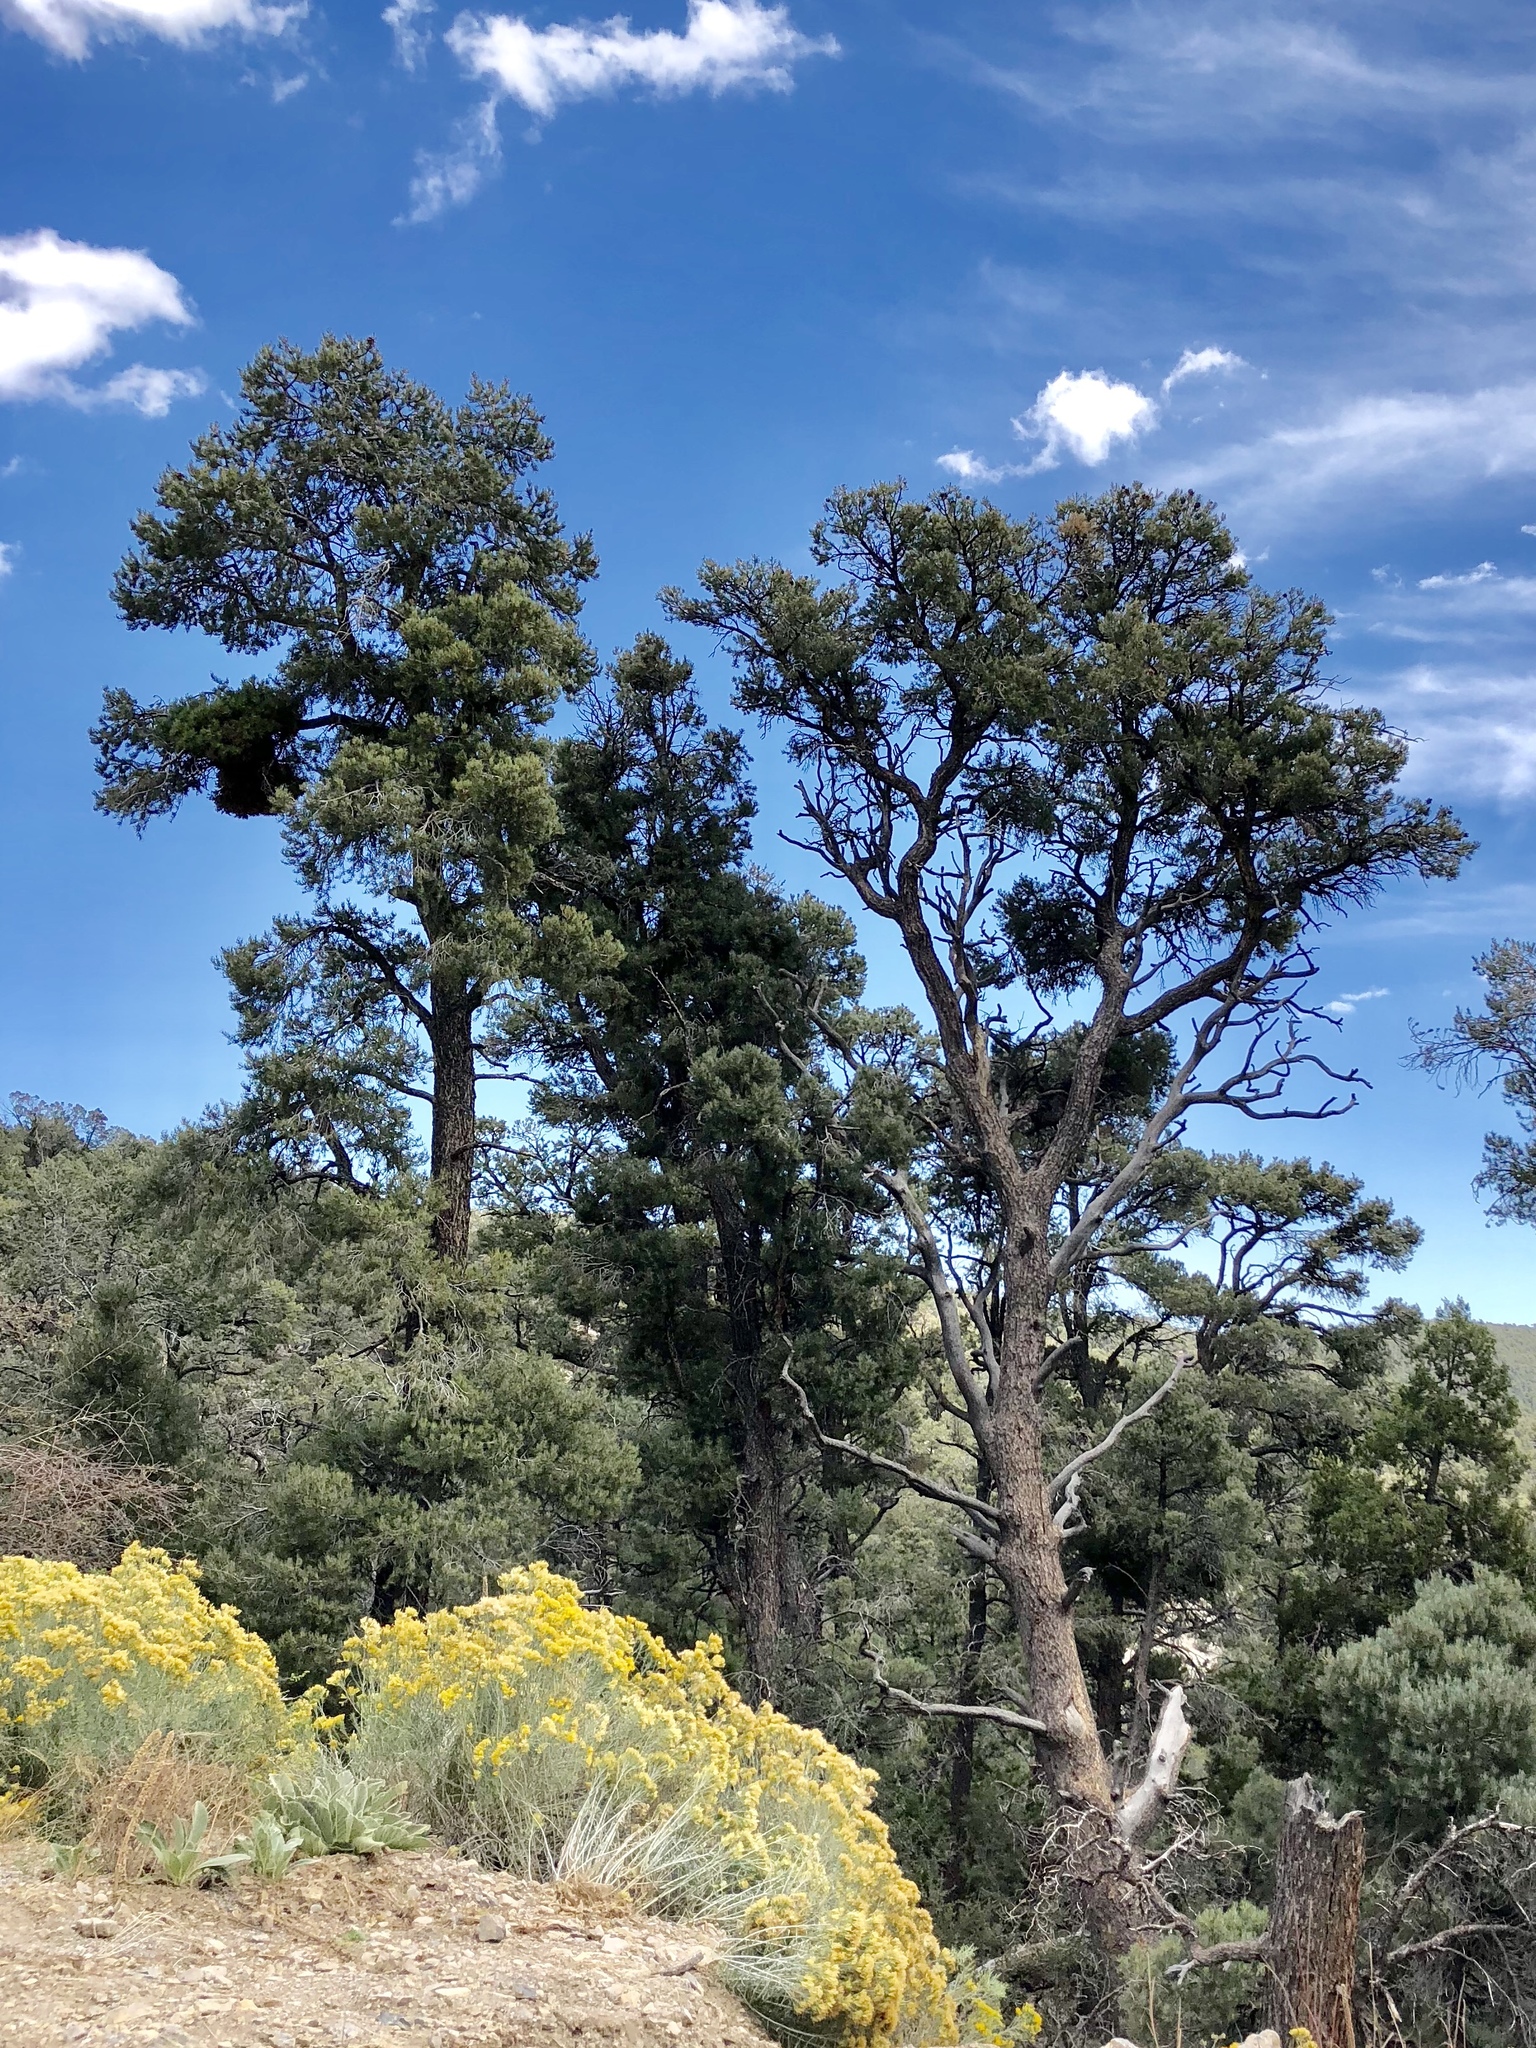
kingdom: Plantae
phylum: Tracheophyta
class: Pinopsida
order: Pinales
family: Pinaceae
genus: Pinus
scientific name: Pinus monophylla
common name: One-leaved nut pine
